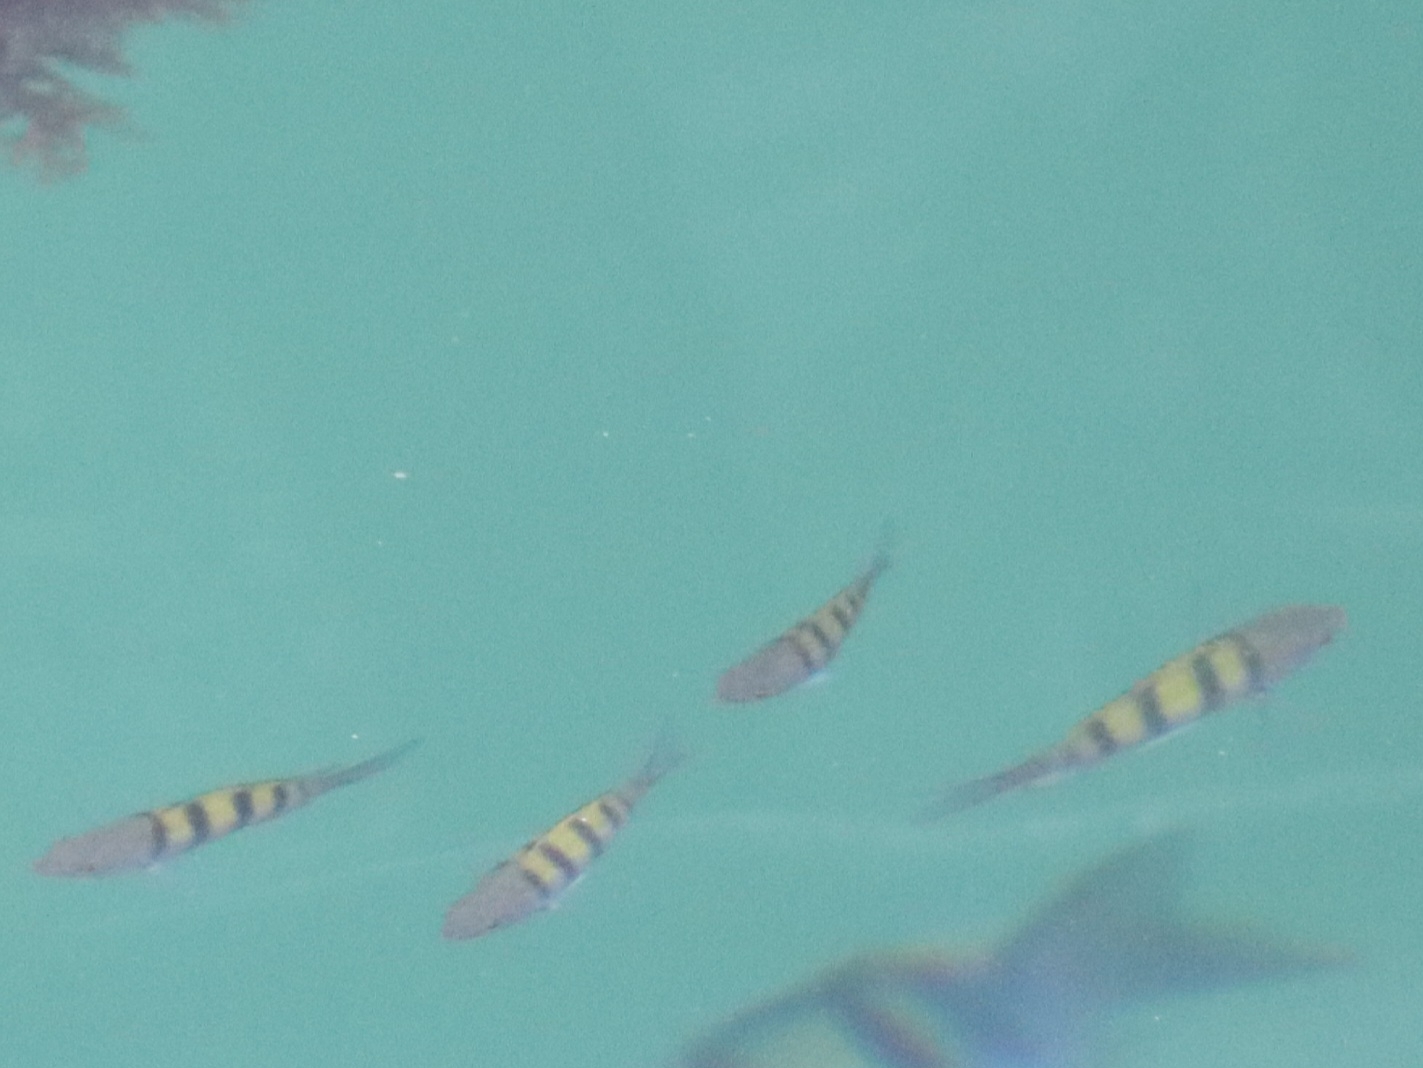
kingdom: Animalia
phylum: Chordata
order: Perciformes
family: Pomacentridae
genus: Abudefduf
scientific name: Abudefduf troschelii
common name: Panamic sergeant major
